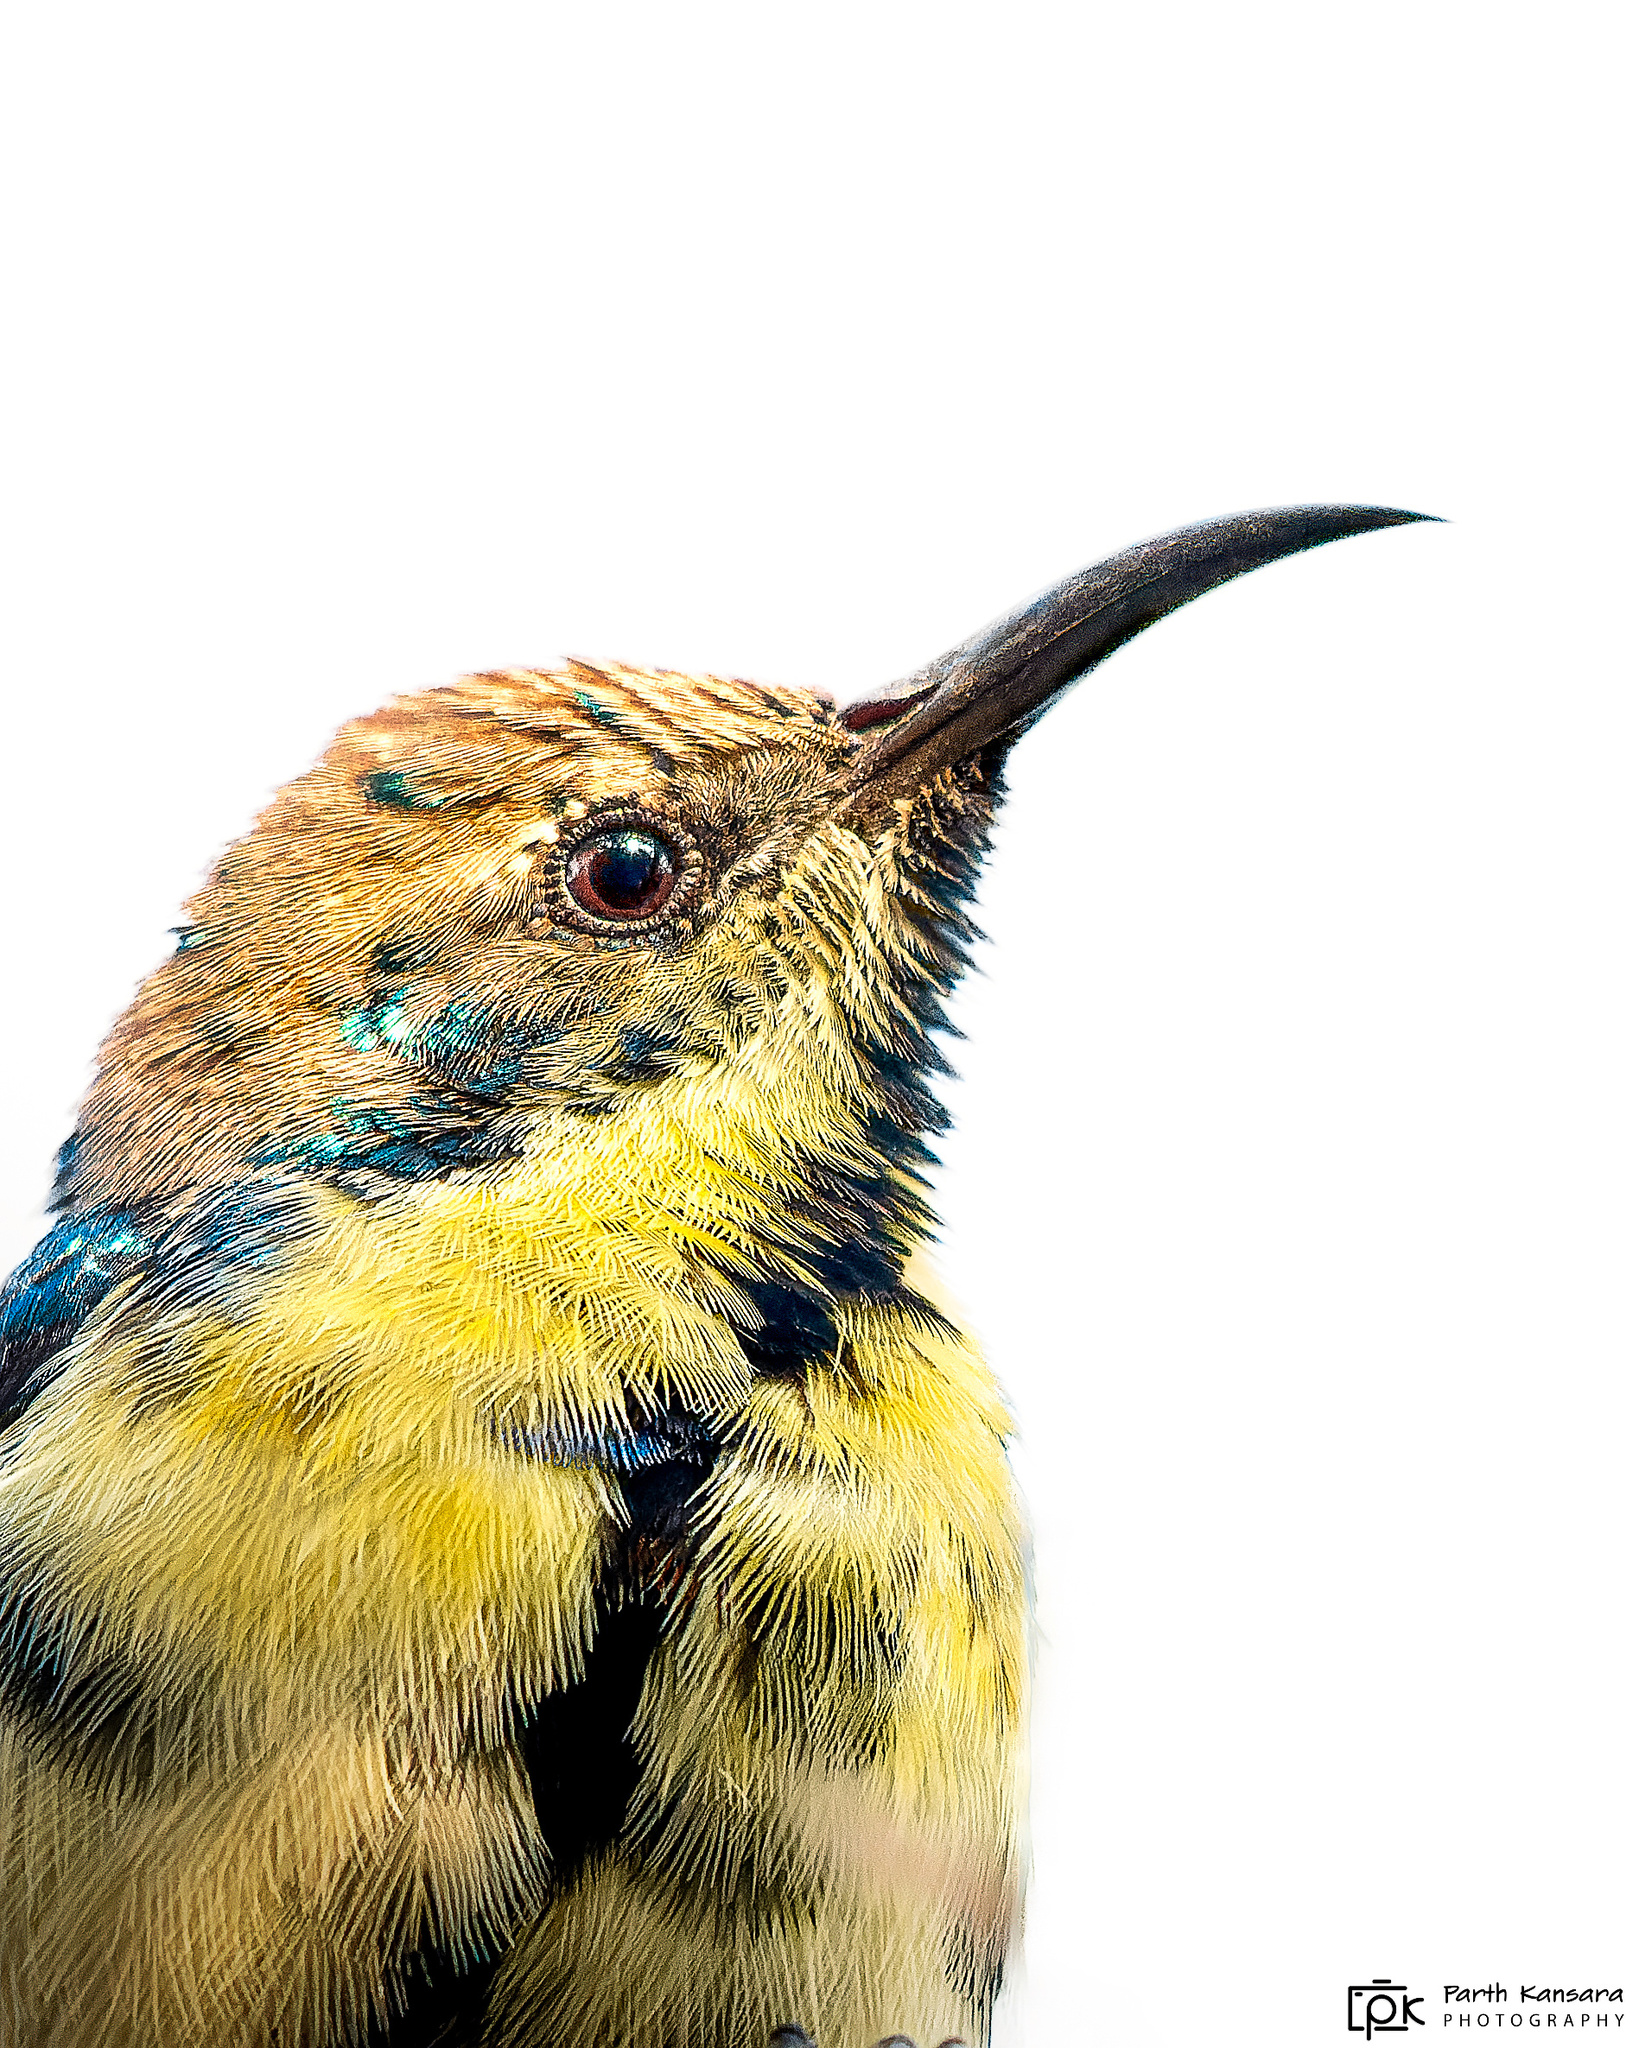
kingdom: Animalia
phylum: Chordata
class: Aves
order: Passeriformes
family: Nectariniidae
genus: Cinnyris
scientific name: Cinnyris asiaticus
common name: Purple sunbird
